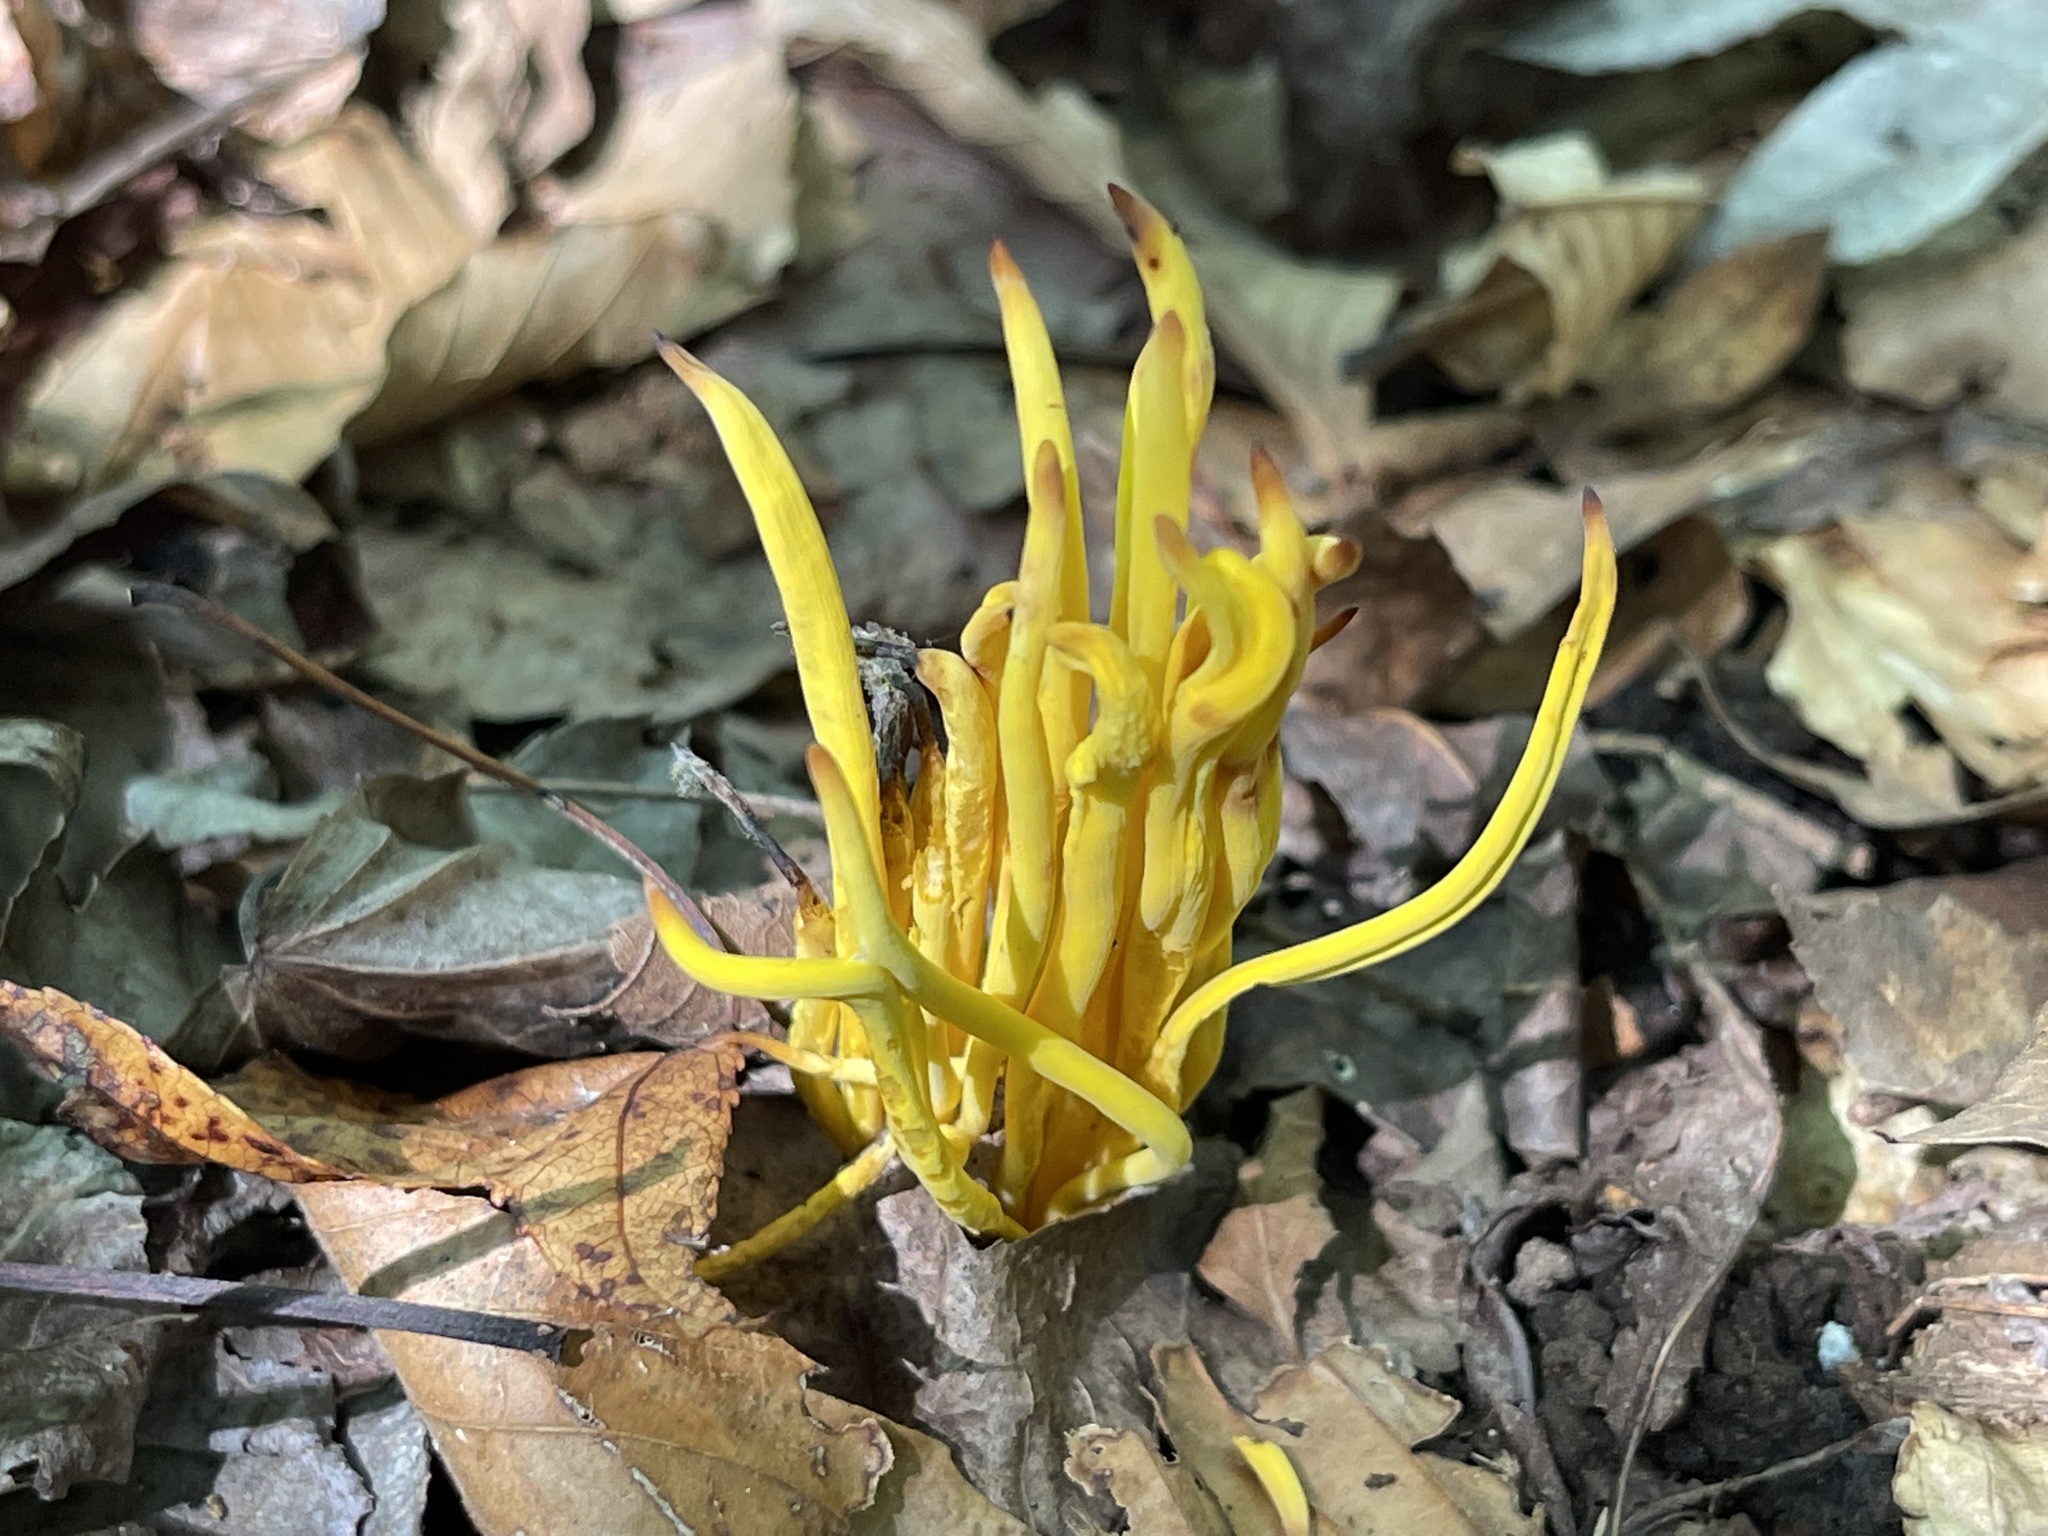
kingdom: Fungi
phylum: Basidiomycota
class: Agaricomycetes
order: Agaricales
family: Clavariaceae
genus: Clavulinopsis
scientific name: Clavulinopsis fusiformis
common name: Golden spindles
